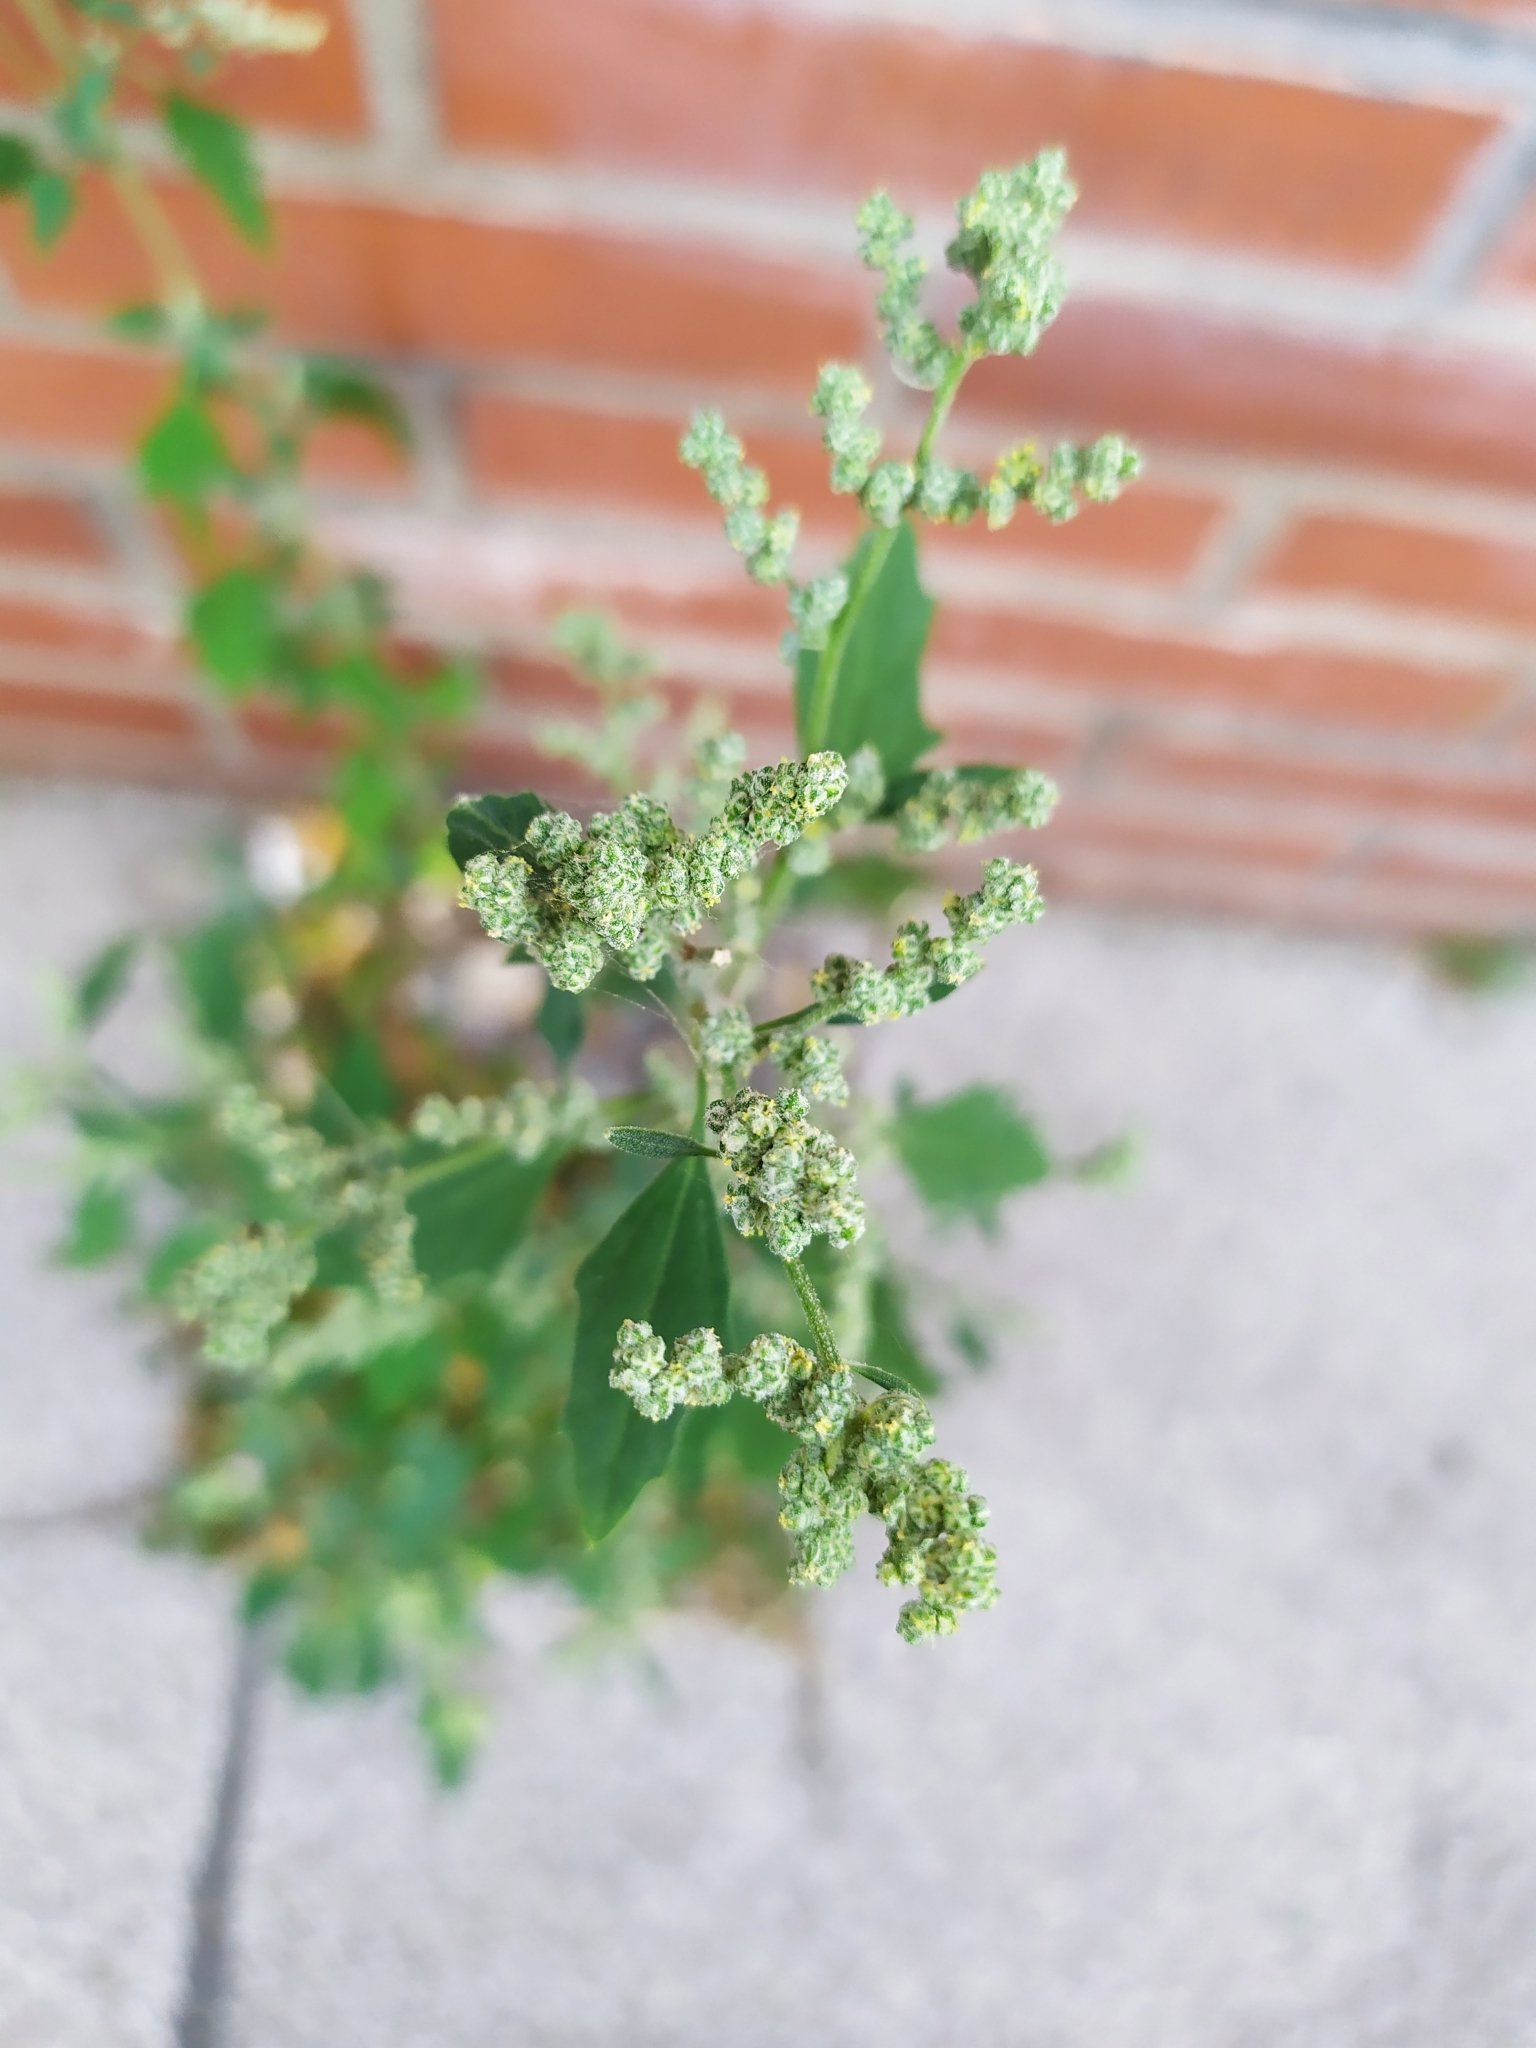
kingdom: Plantae
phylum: Tracheophyta
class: Magnoliopsida
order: Caryophyllales
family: Amaranthaceae
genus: Chenopodium
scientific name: Chenopodium album
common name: Fat-hen
